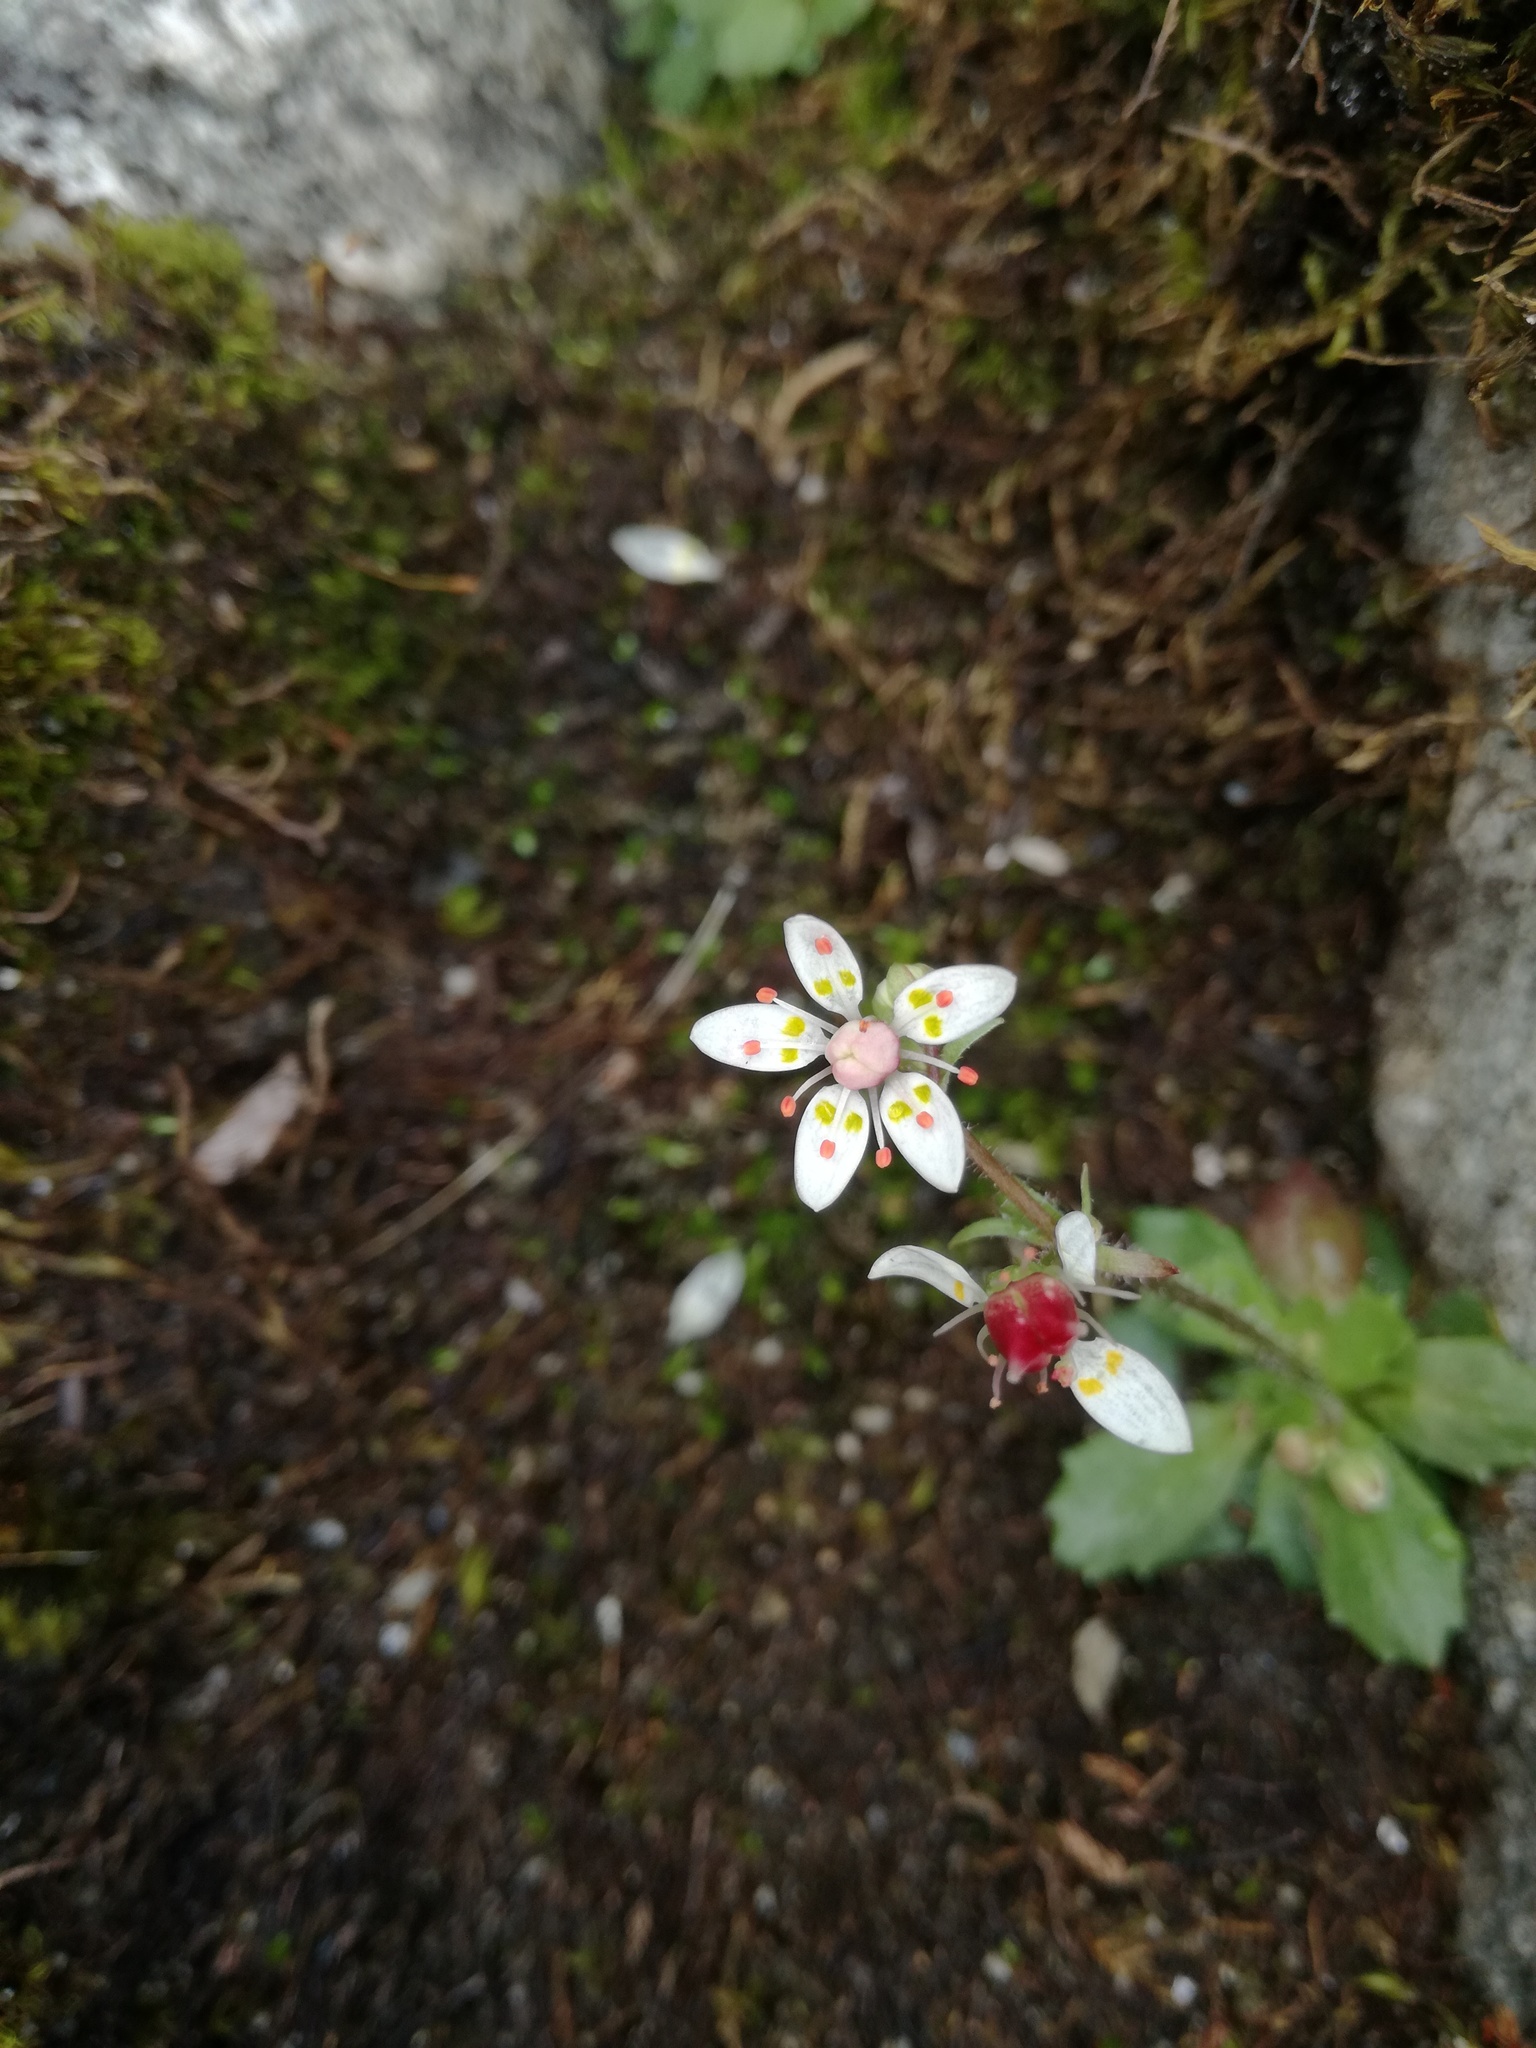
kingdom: Plantae
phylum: Tracheophyta
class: Magnoliopsida
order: Saxifragales
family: Saxifragaceae
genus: Micranthes
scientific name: Micranthes stellaris
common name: Starry saxifrage
